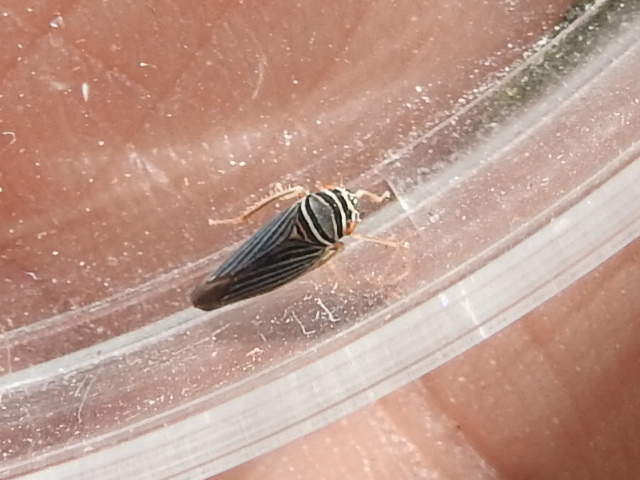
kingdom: Animalia
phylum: Arthropoda
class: Insecta
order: Hemiptera
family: Cicadellidae
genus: Tylozygus
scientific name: Tylozygus bifidus
